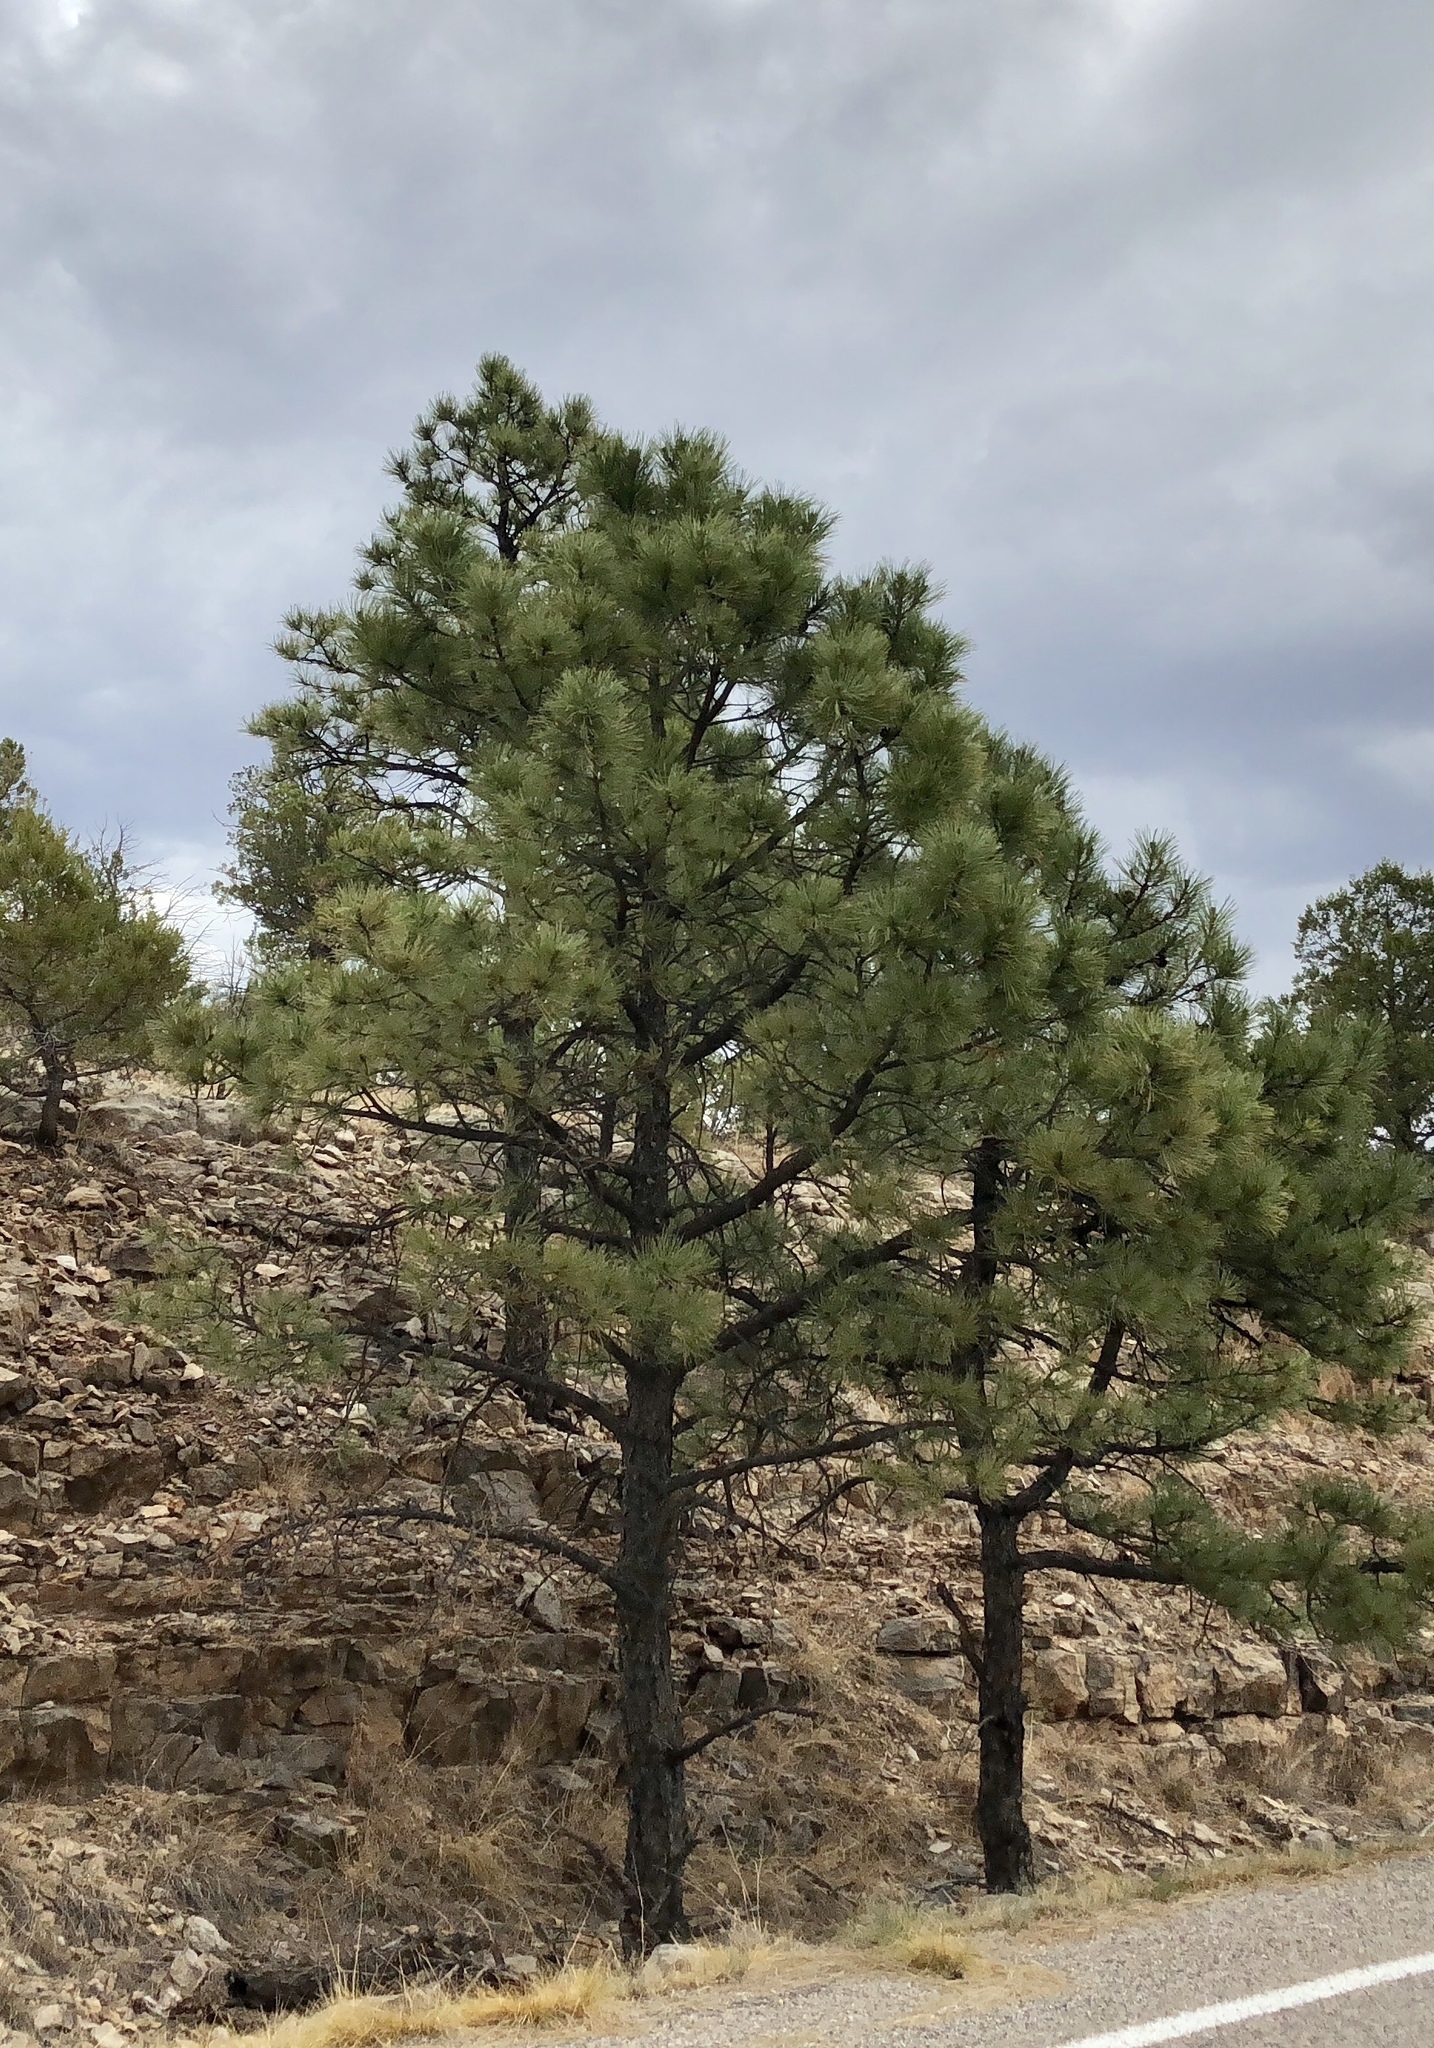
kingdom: Plantae
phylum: Tracheophyta
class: Pinopsida
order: Pinales
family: Pinaceae
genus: Pinus
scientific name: Pinus ponderosa
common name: Western yellow-pine
